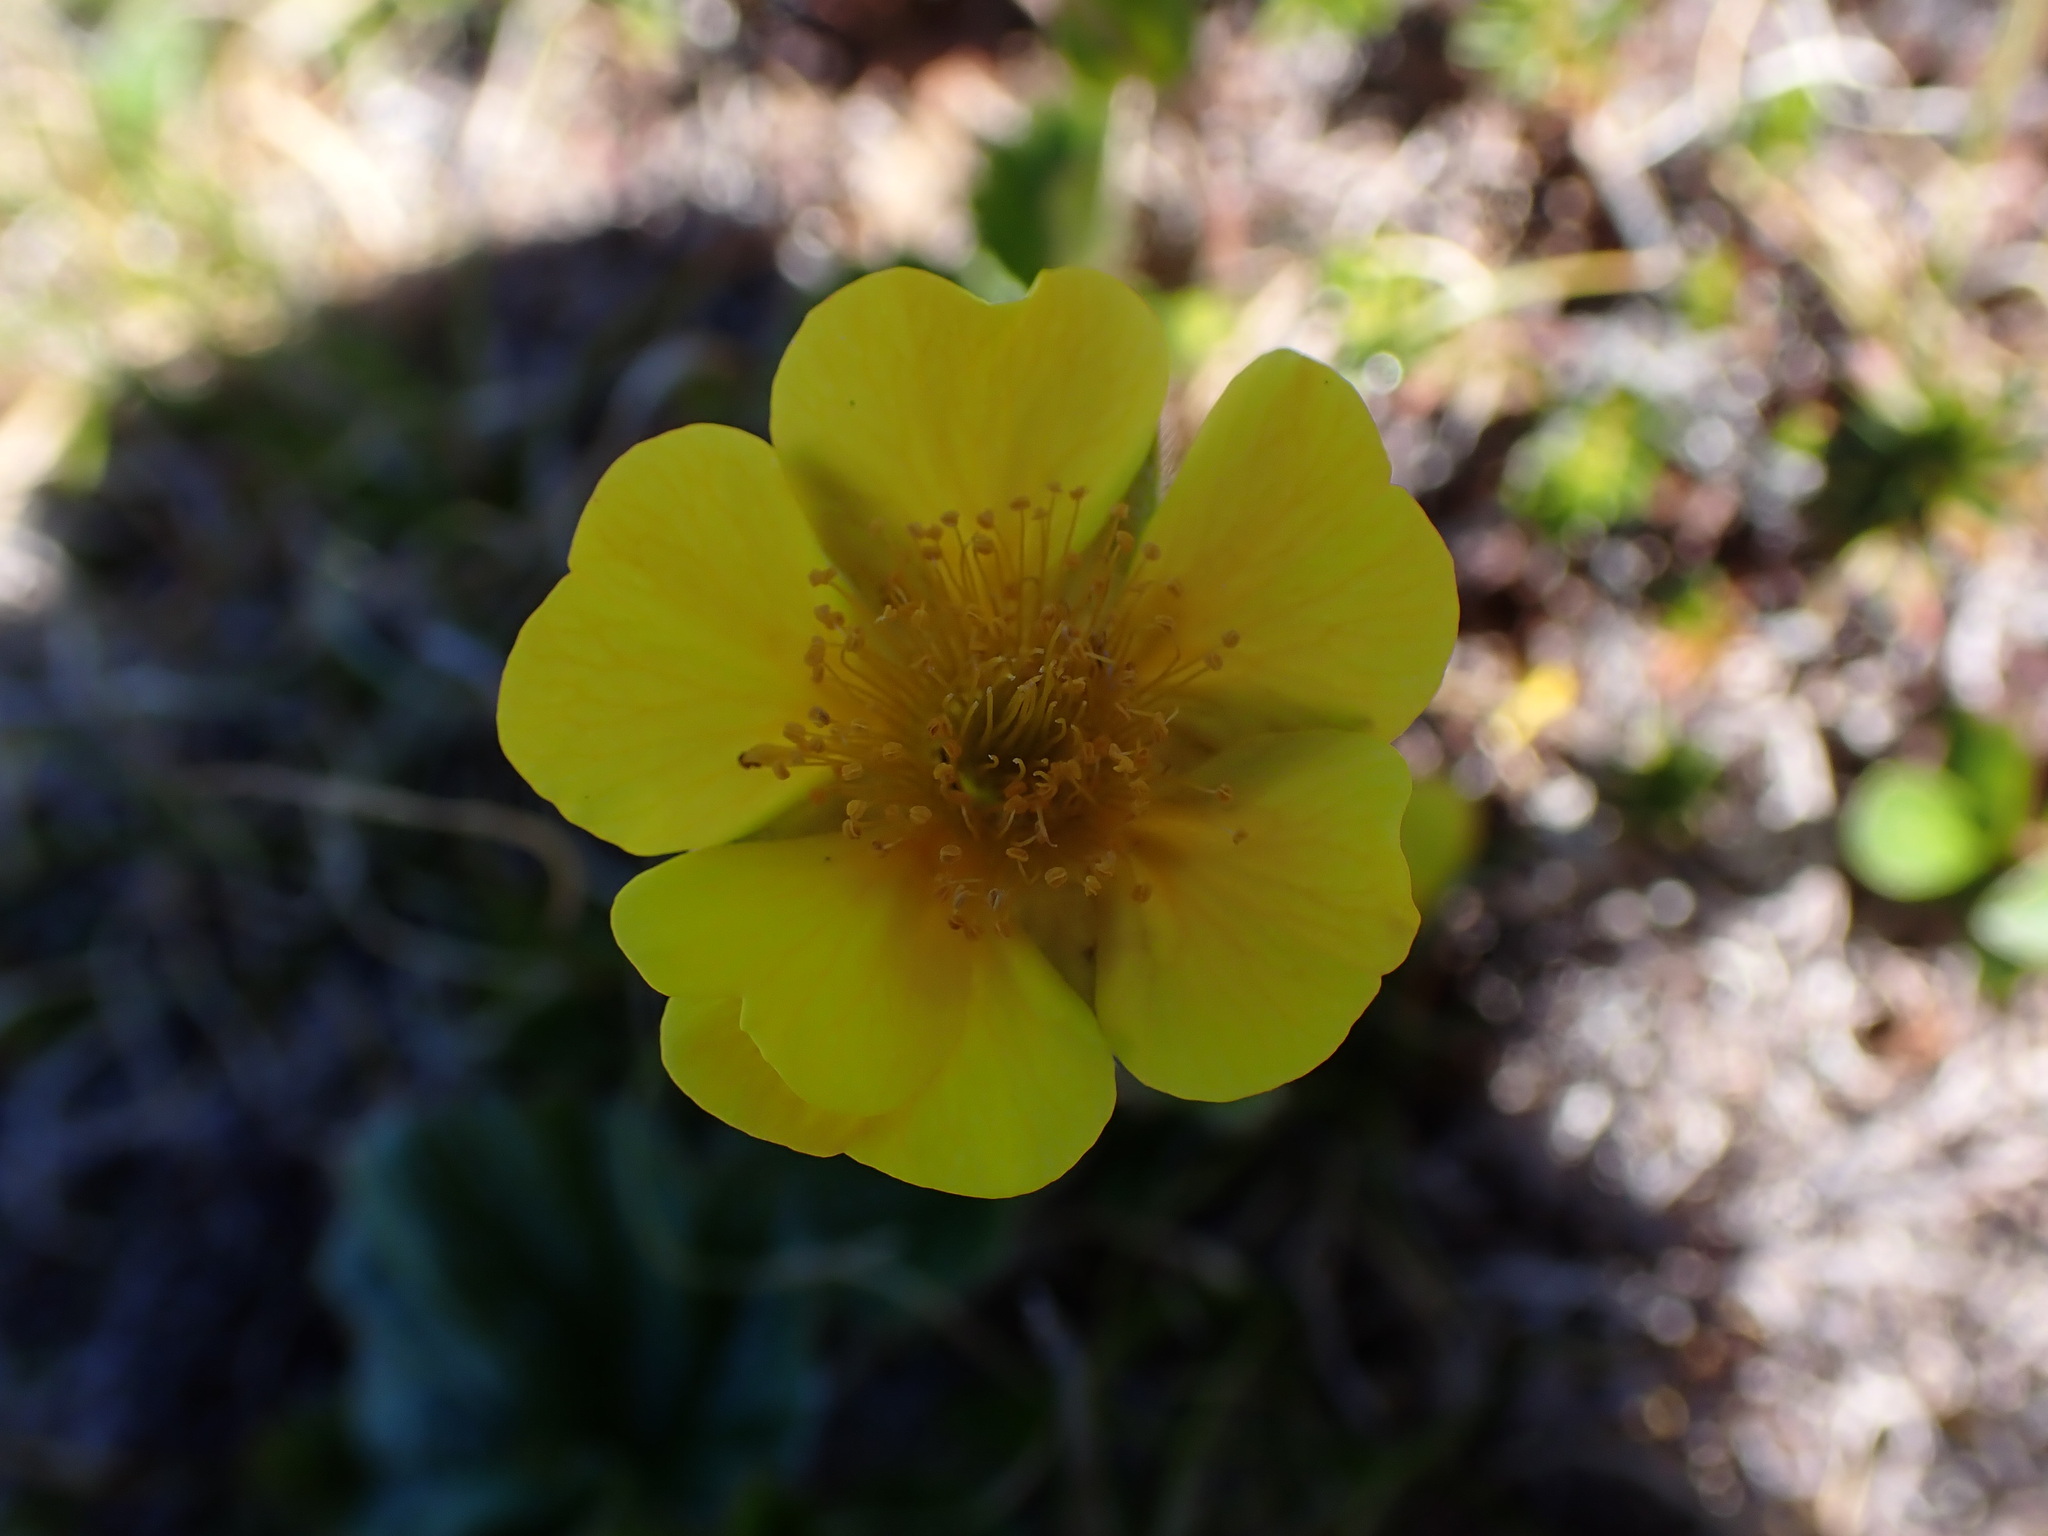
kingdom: Plantae
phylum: Tracheophyta
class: Magnoliopsida
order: Rosales
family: Rosaceae
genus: Geum
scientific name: Geum calthifolium
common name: Caltha-leaved avens
